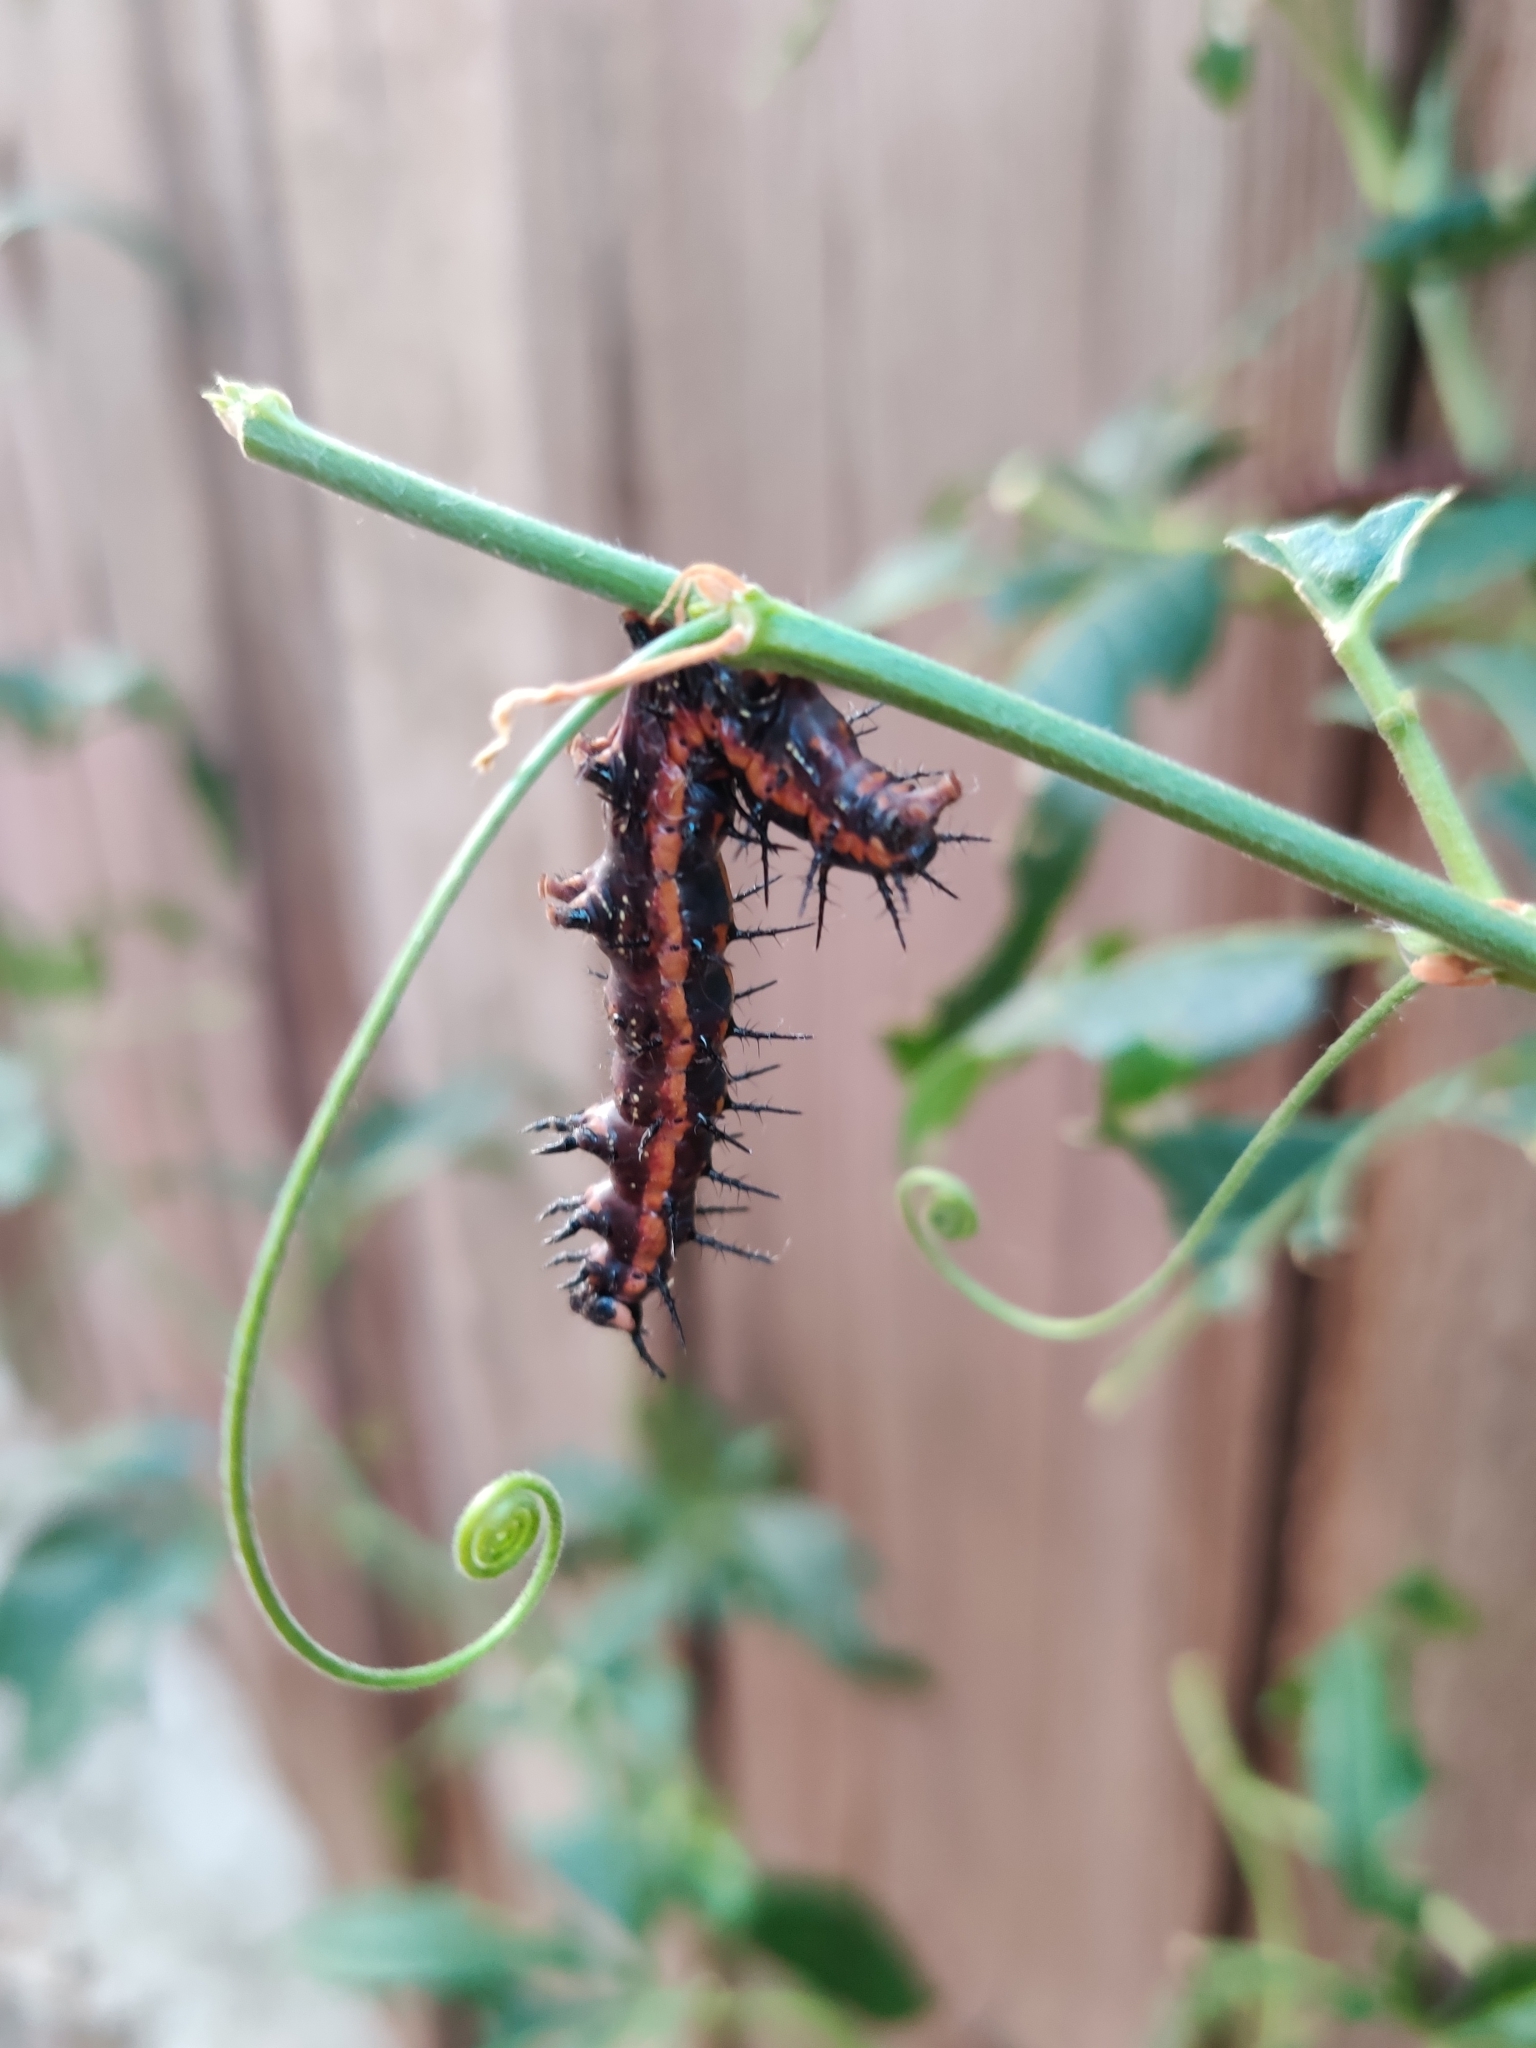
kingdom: Animalia
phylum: Arthropoda
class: Insecta
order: Lepidoptera
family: Nymphalidae
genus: Dione
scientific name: Dione vanillae
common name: Gulf fritillary
